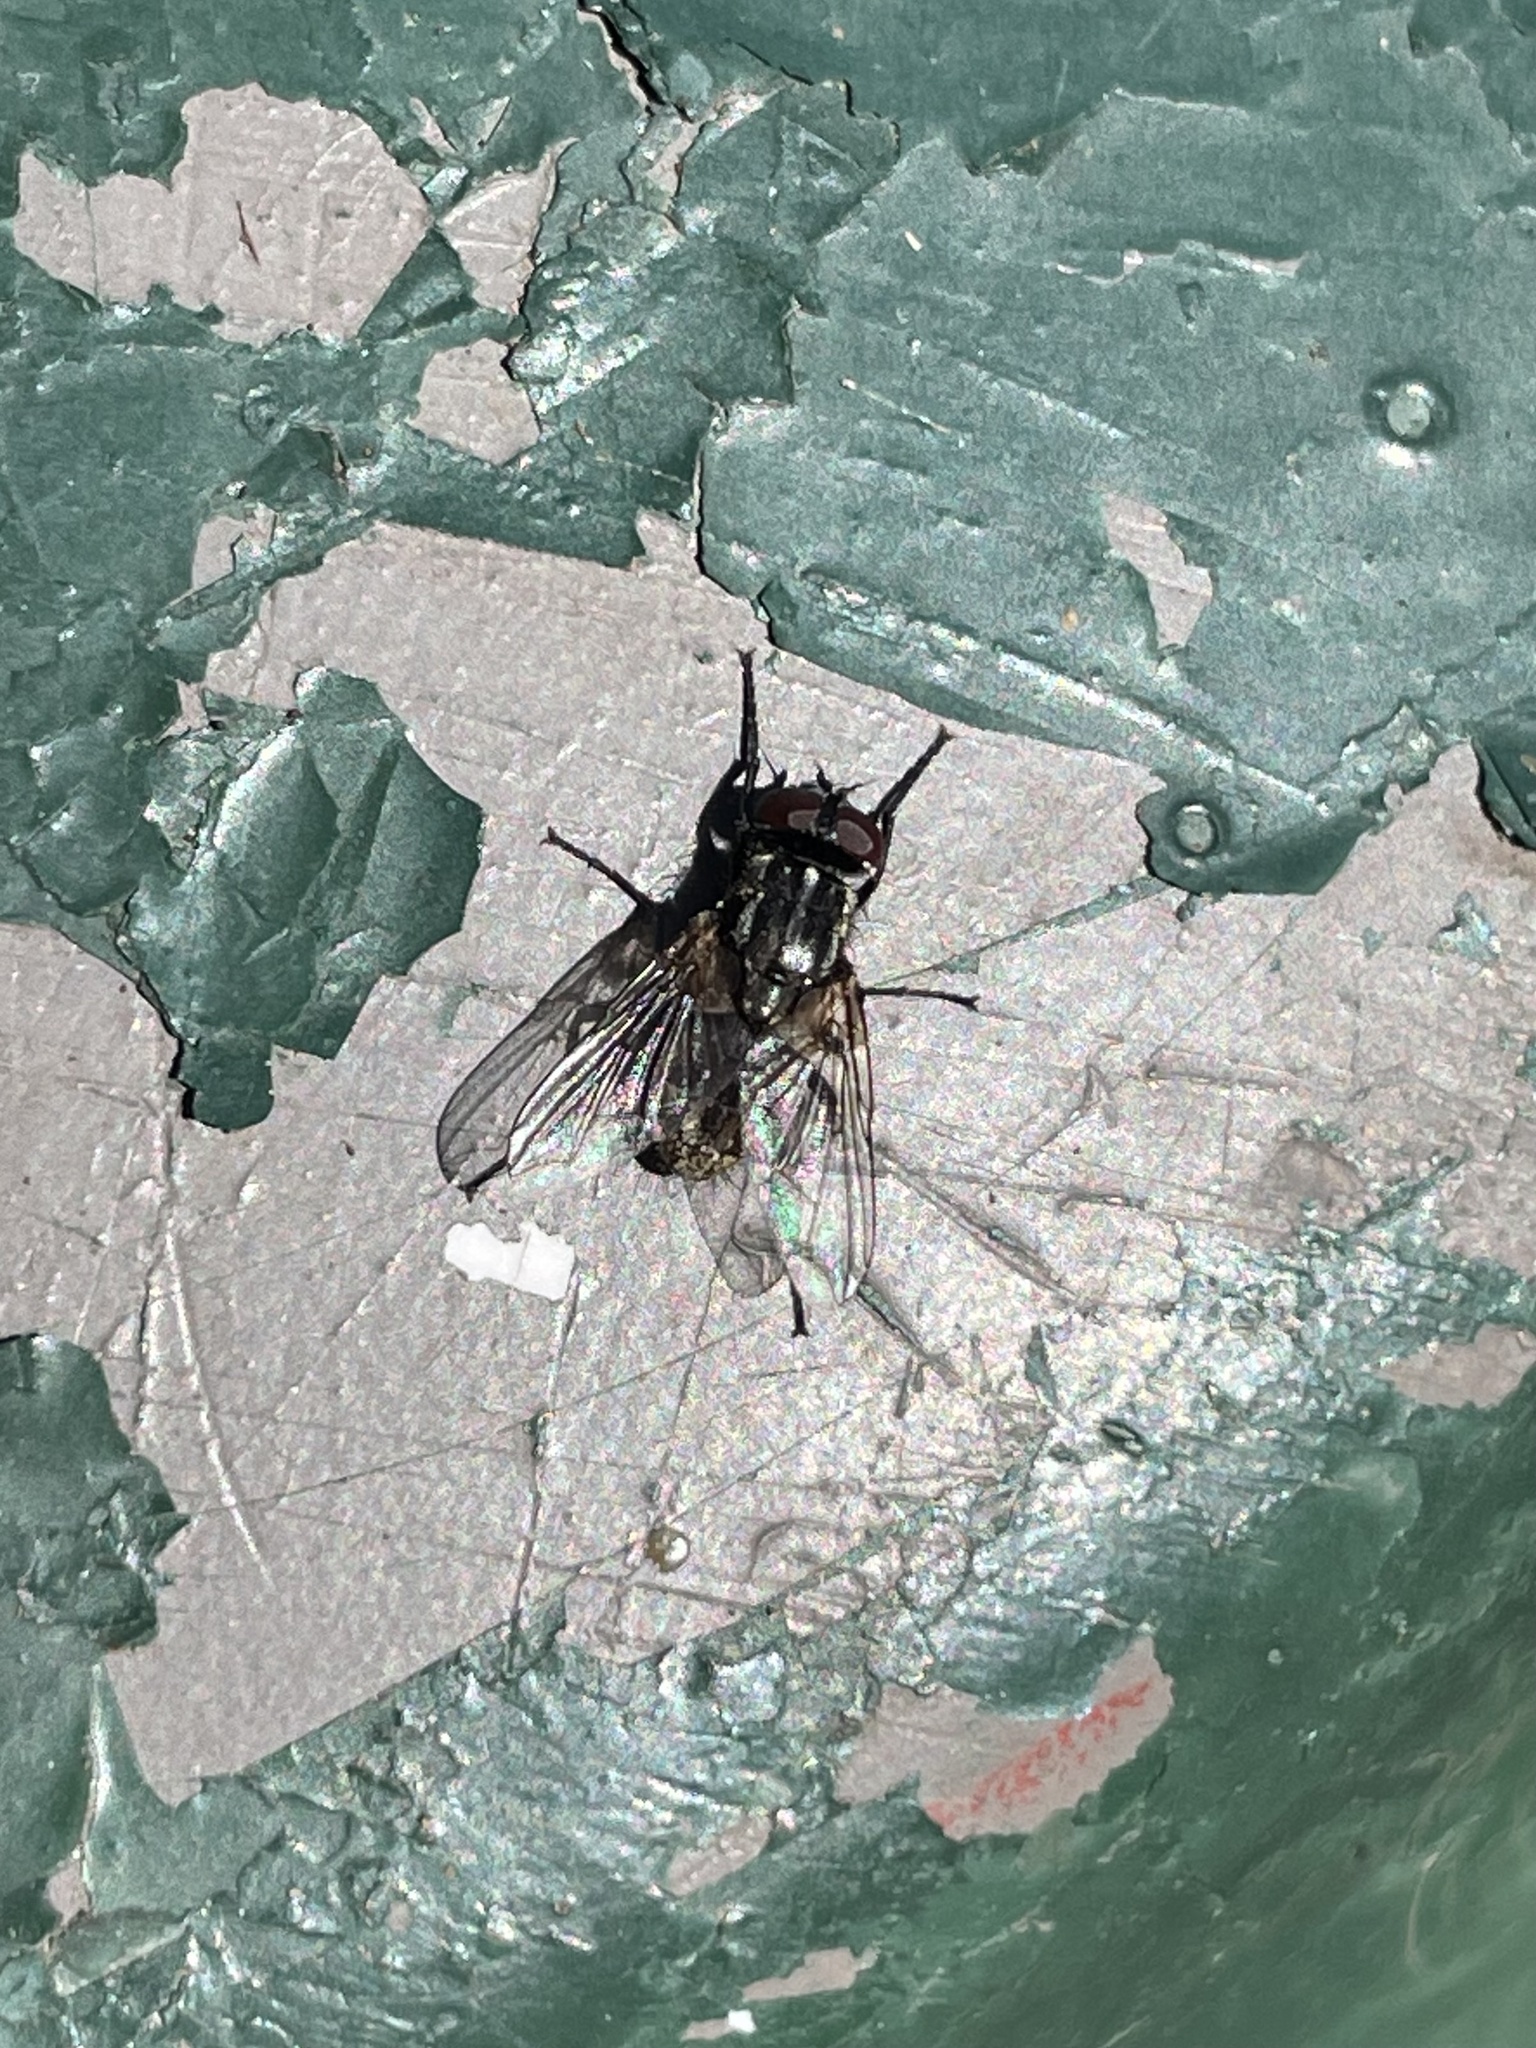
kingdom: Animalia
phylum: Arthropoda
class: Insecta
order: Diptera
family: Muscidae
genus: Musca
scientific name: Musca domestica
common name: House fly
